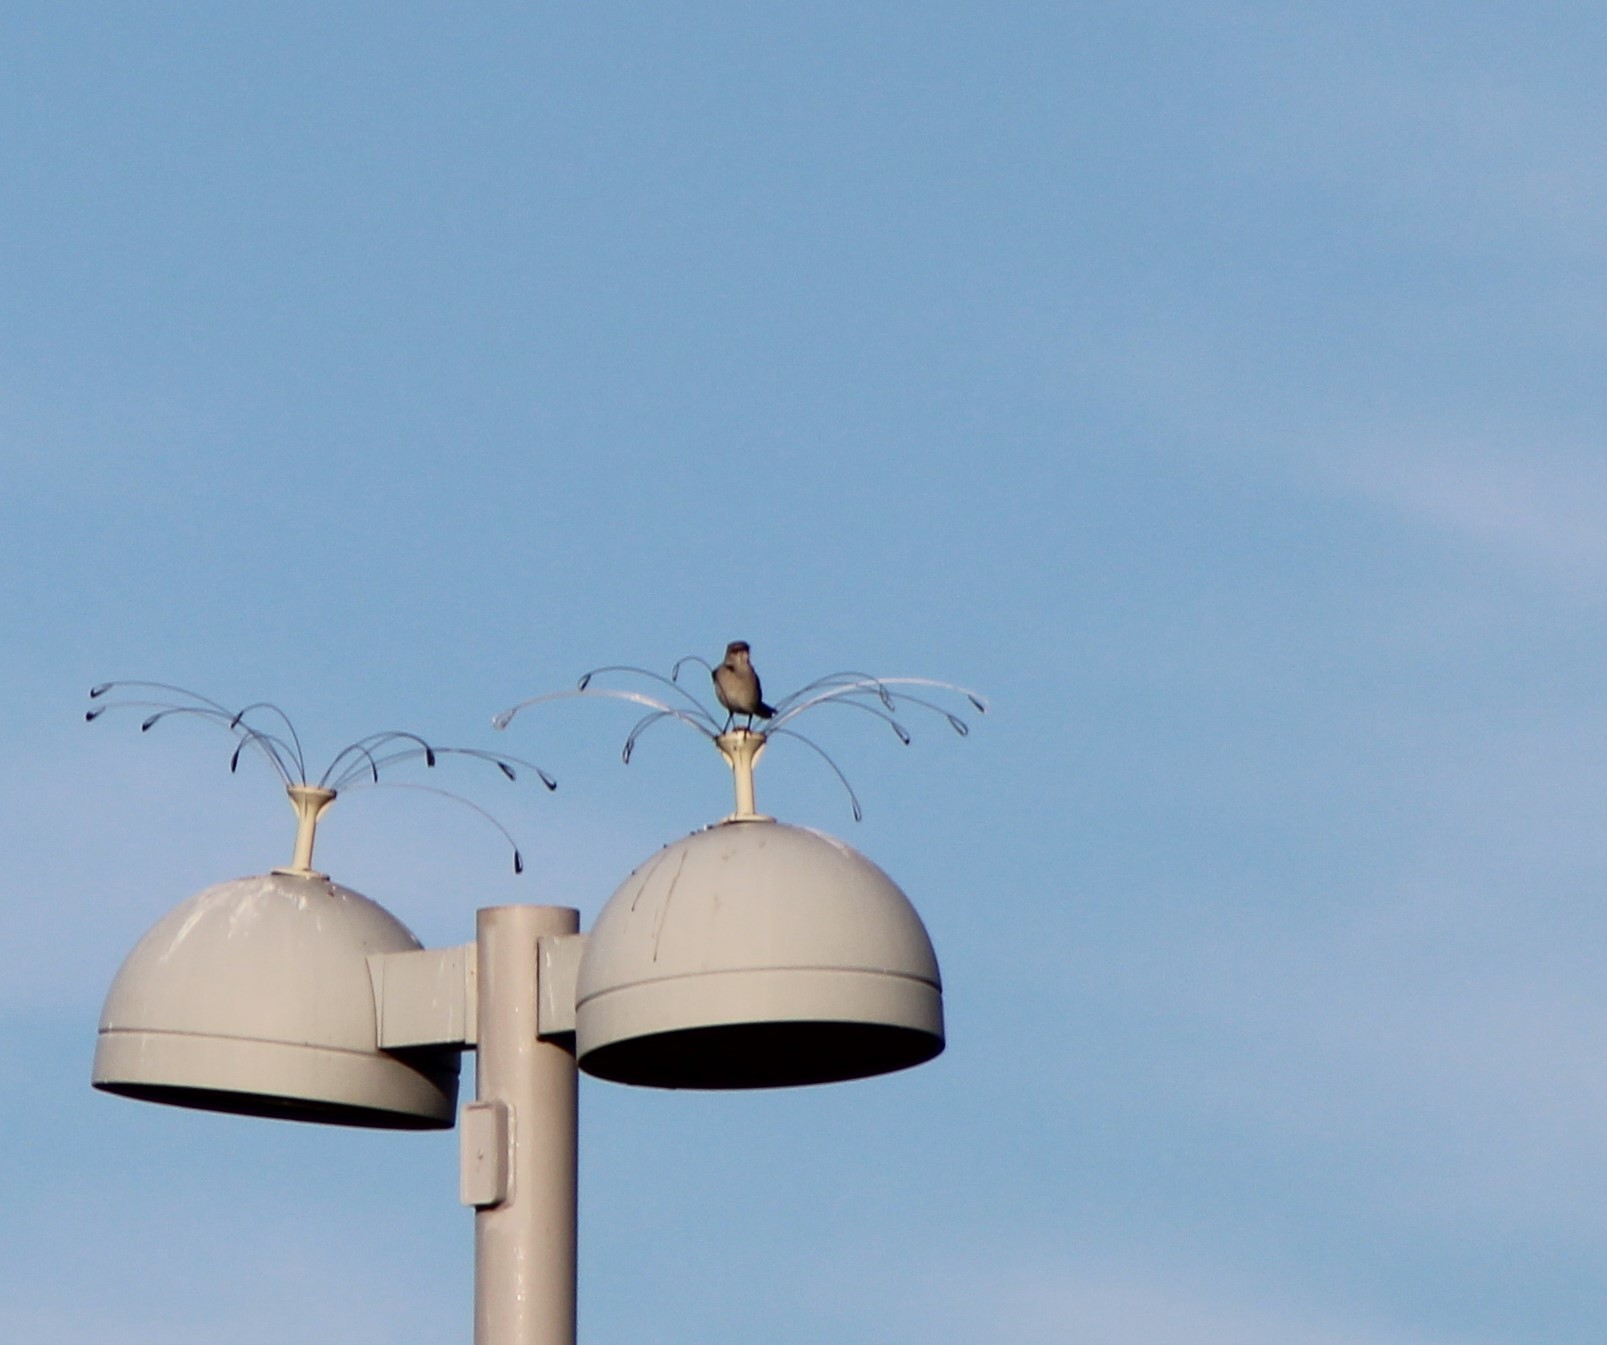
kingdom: Animalia
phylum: Chordata
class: Aves
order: Passeriformes
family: Mimidae
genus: Mimus
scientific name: Mimus polyglottos
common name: Northern mockingbird
